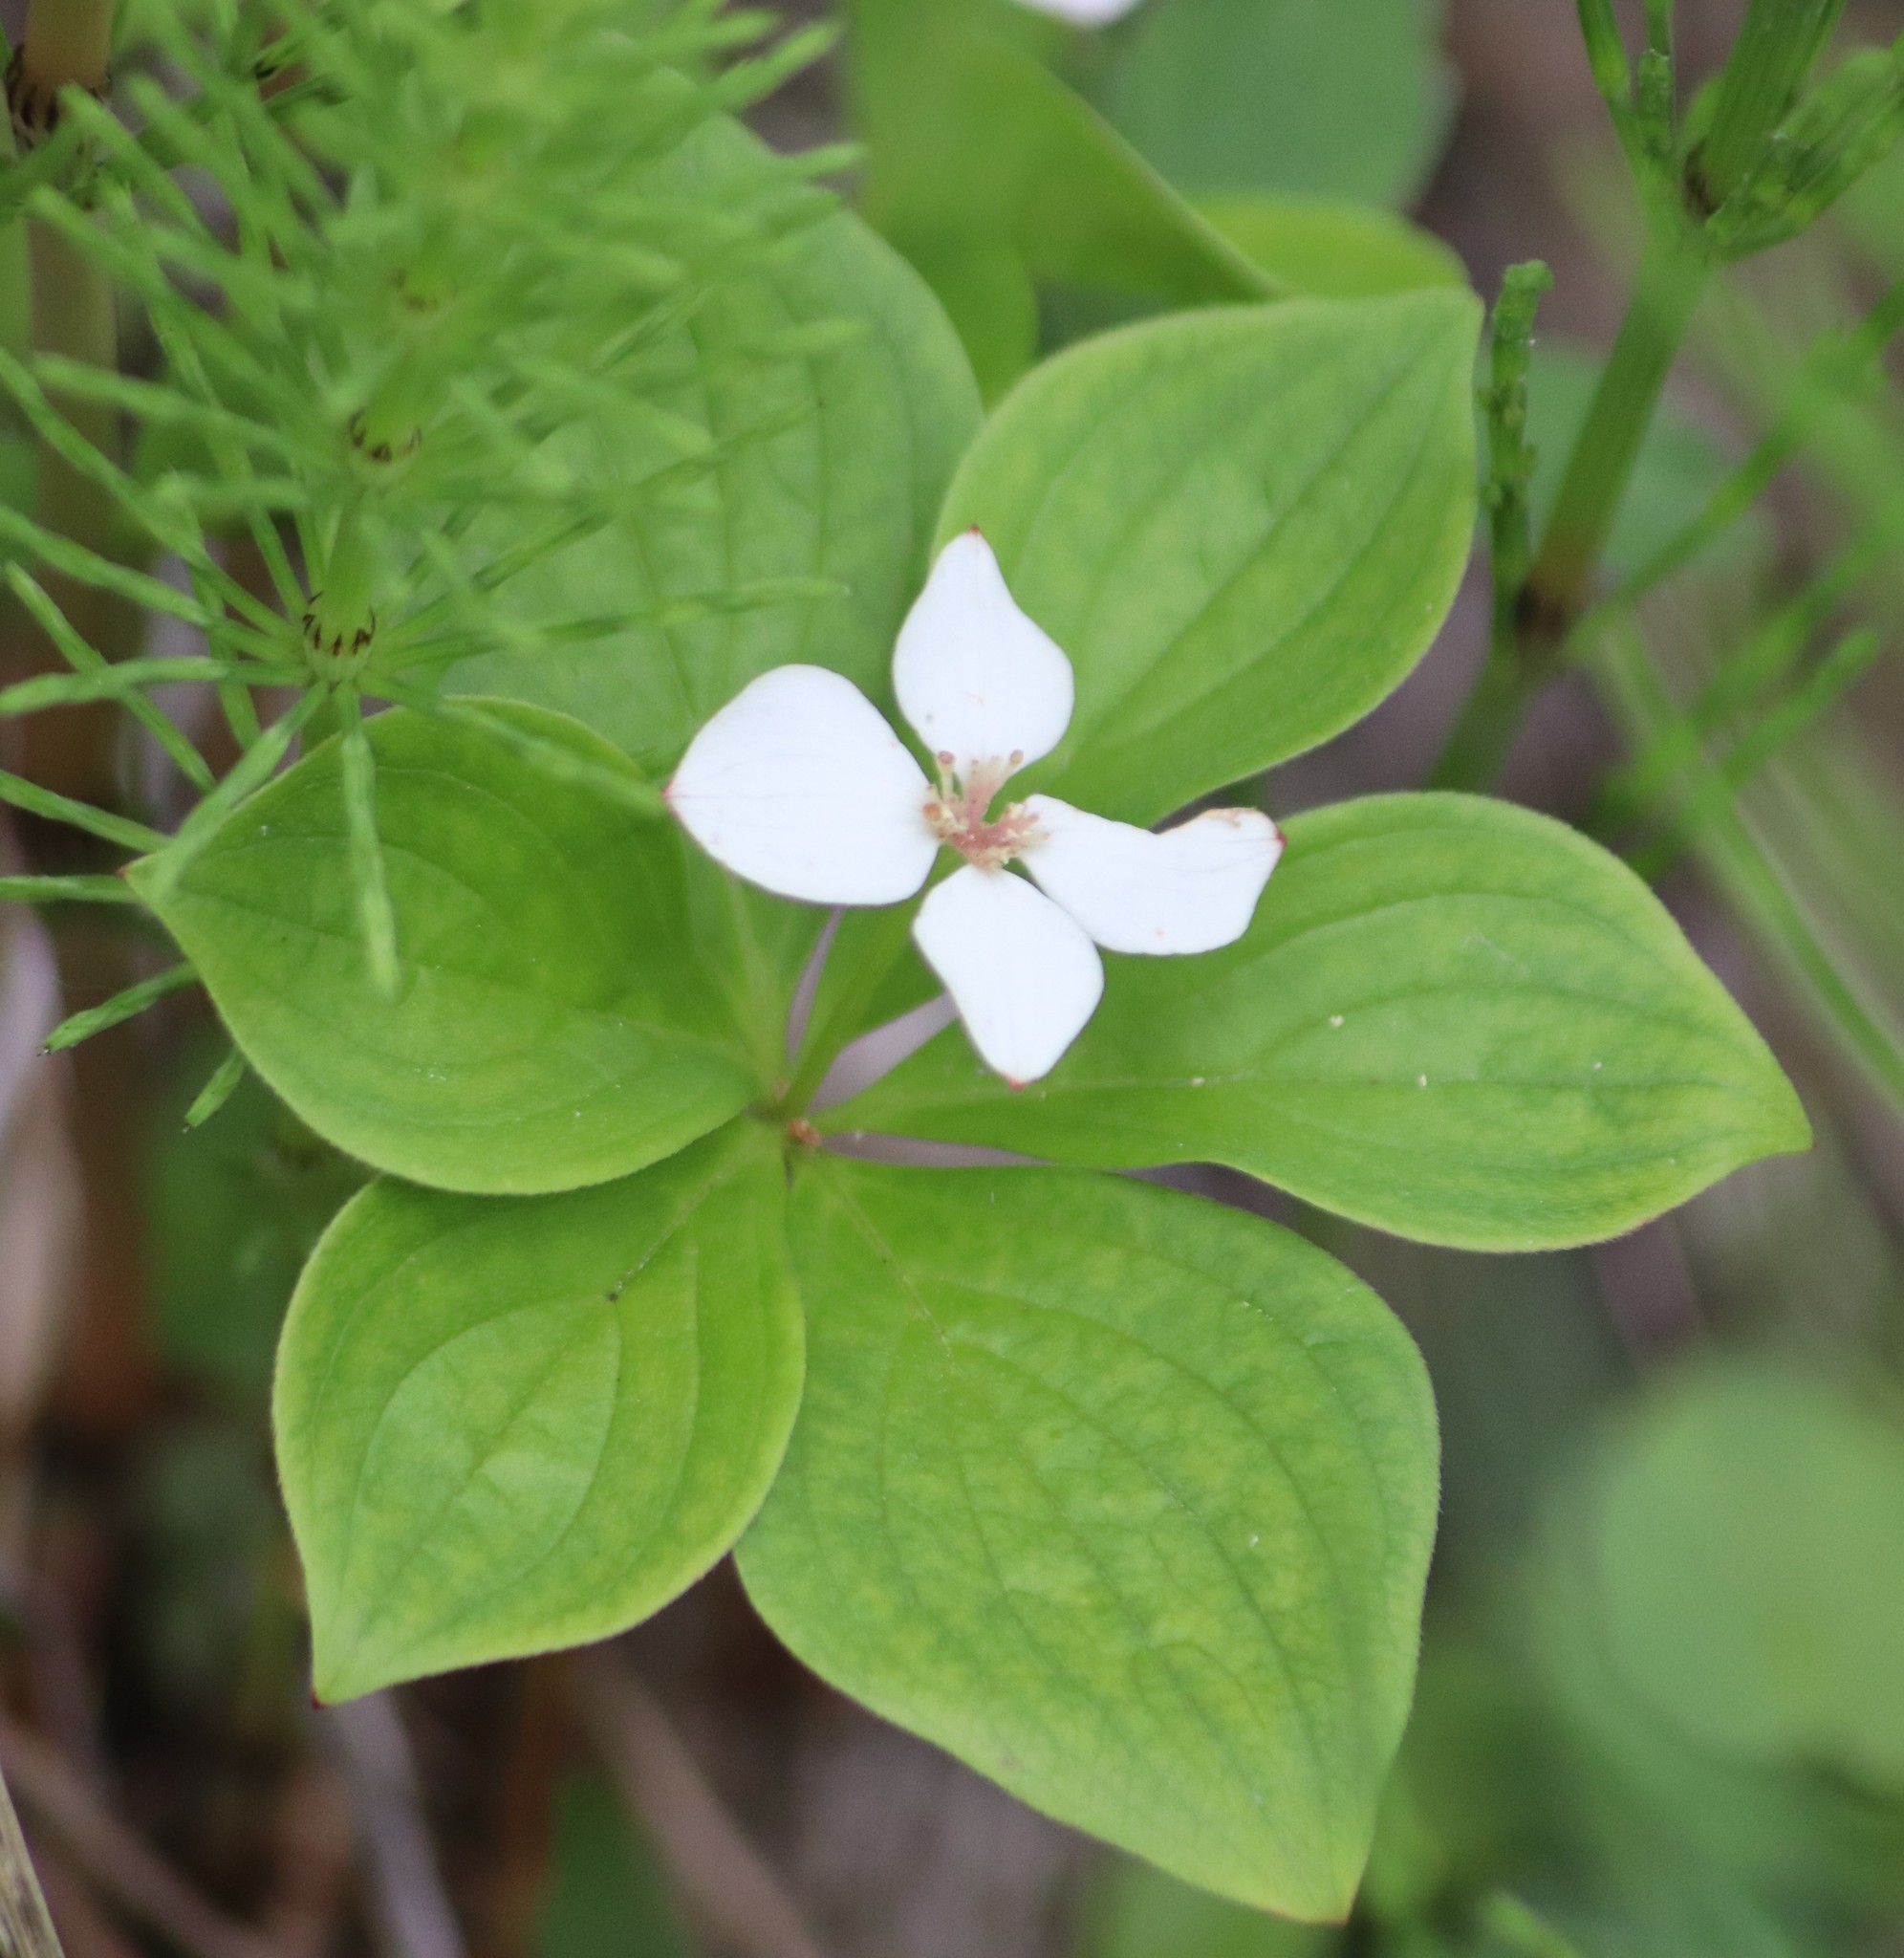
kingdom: Plantae
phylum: Tracheophyta
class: Magnoliopsida
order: Cornales
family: Cornaceae
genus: Cornus
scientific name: Cornus canadensis
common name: Creeping dogwood
